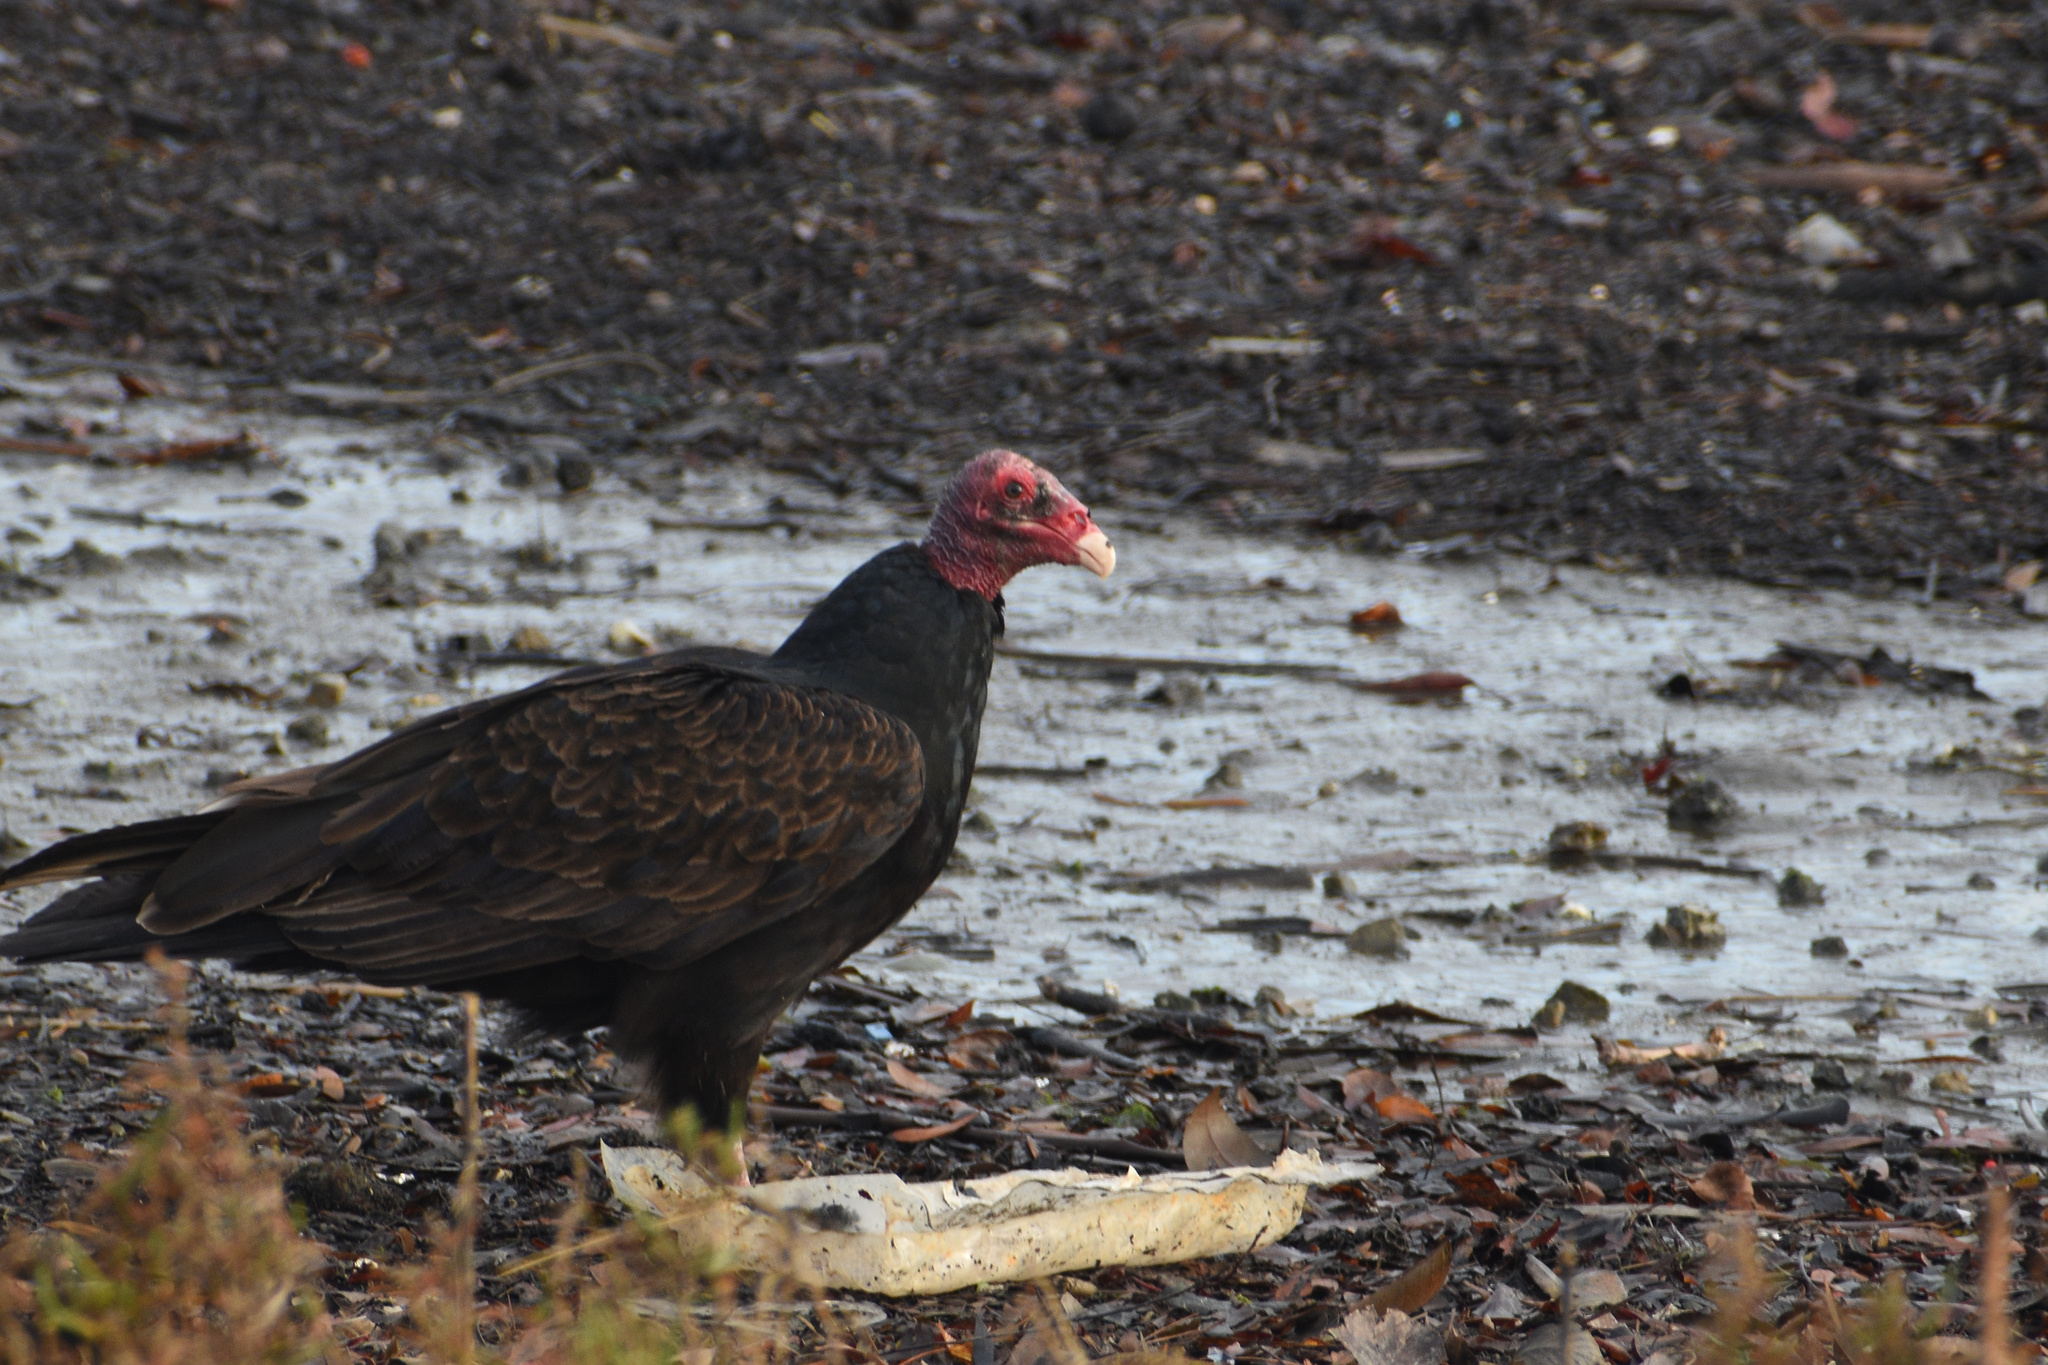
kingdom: Animalia
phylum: Chordata
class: Aves
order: Accipitriformes
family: Cathartidae
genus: Cathartes
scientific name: Cathartes aura
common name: Turkey vulture
